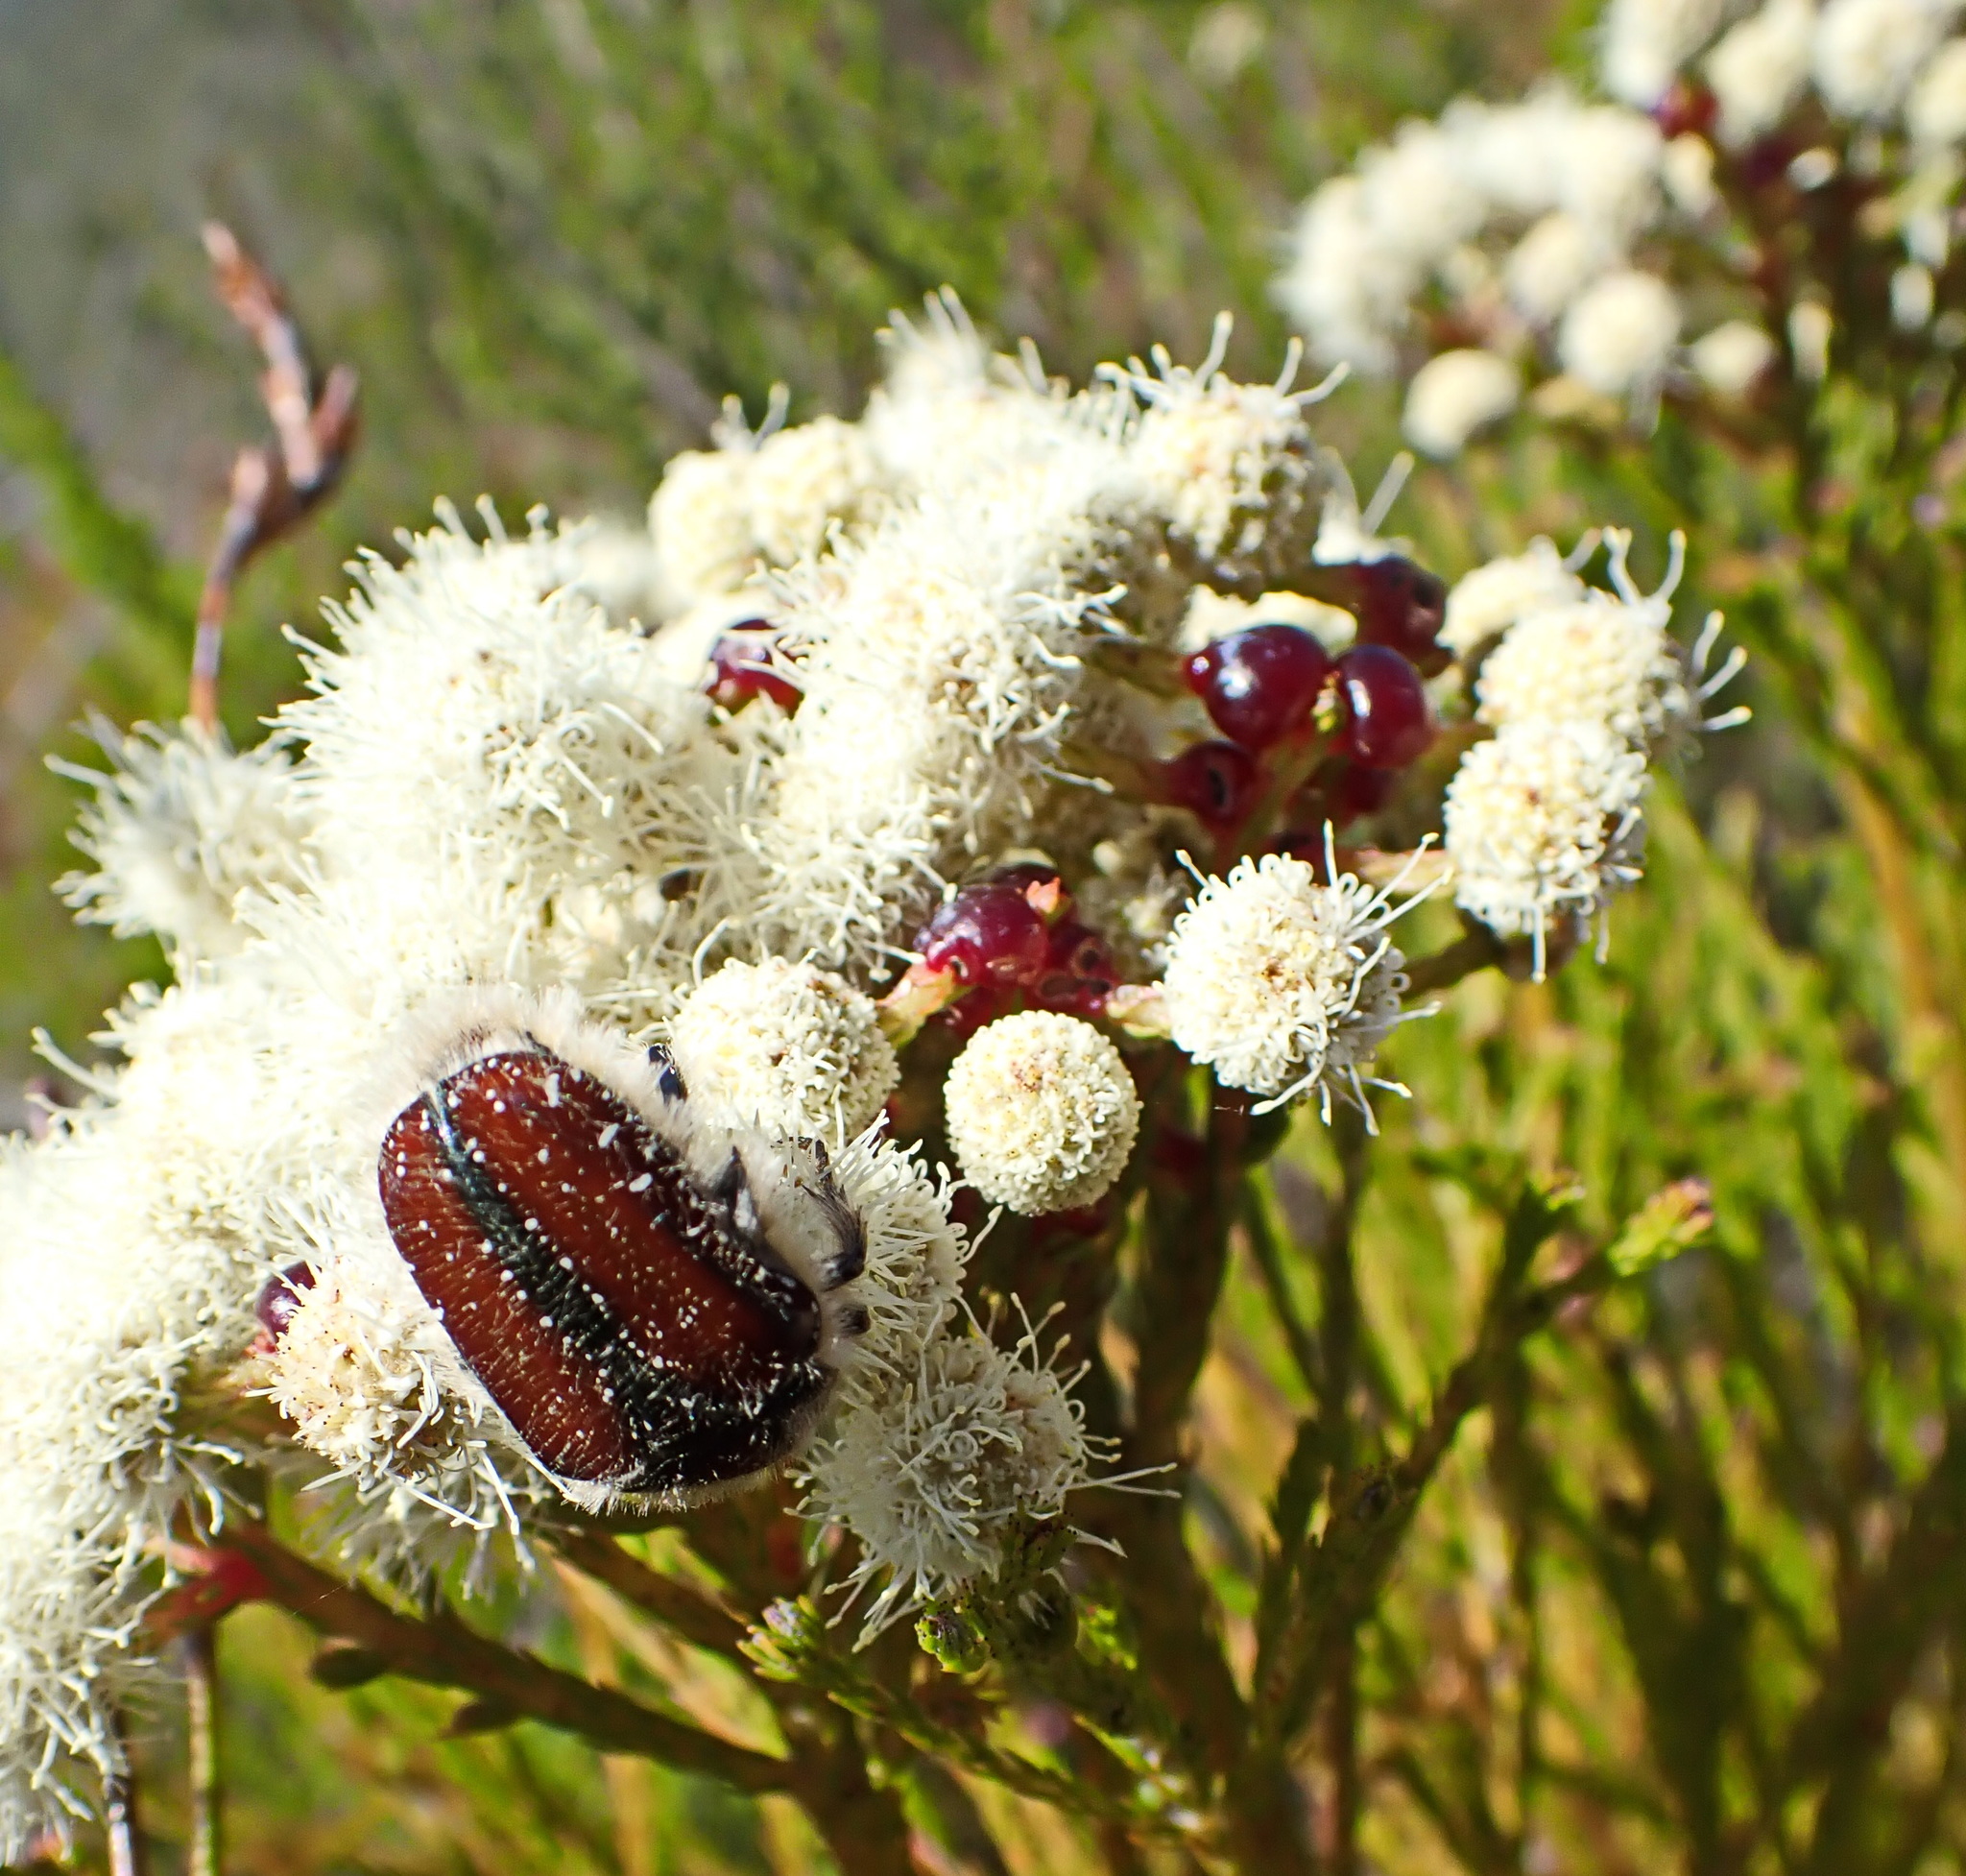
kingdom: Animalia
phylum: Arthropoda
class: Insecta
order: Coleoptera
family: Scarabaeidae
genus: Trichostetha
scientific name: Trichostetha capensis
